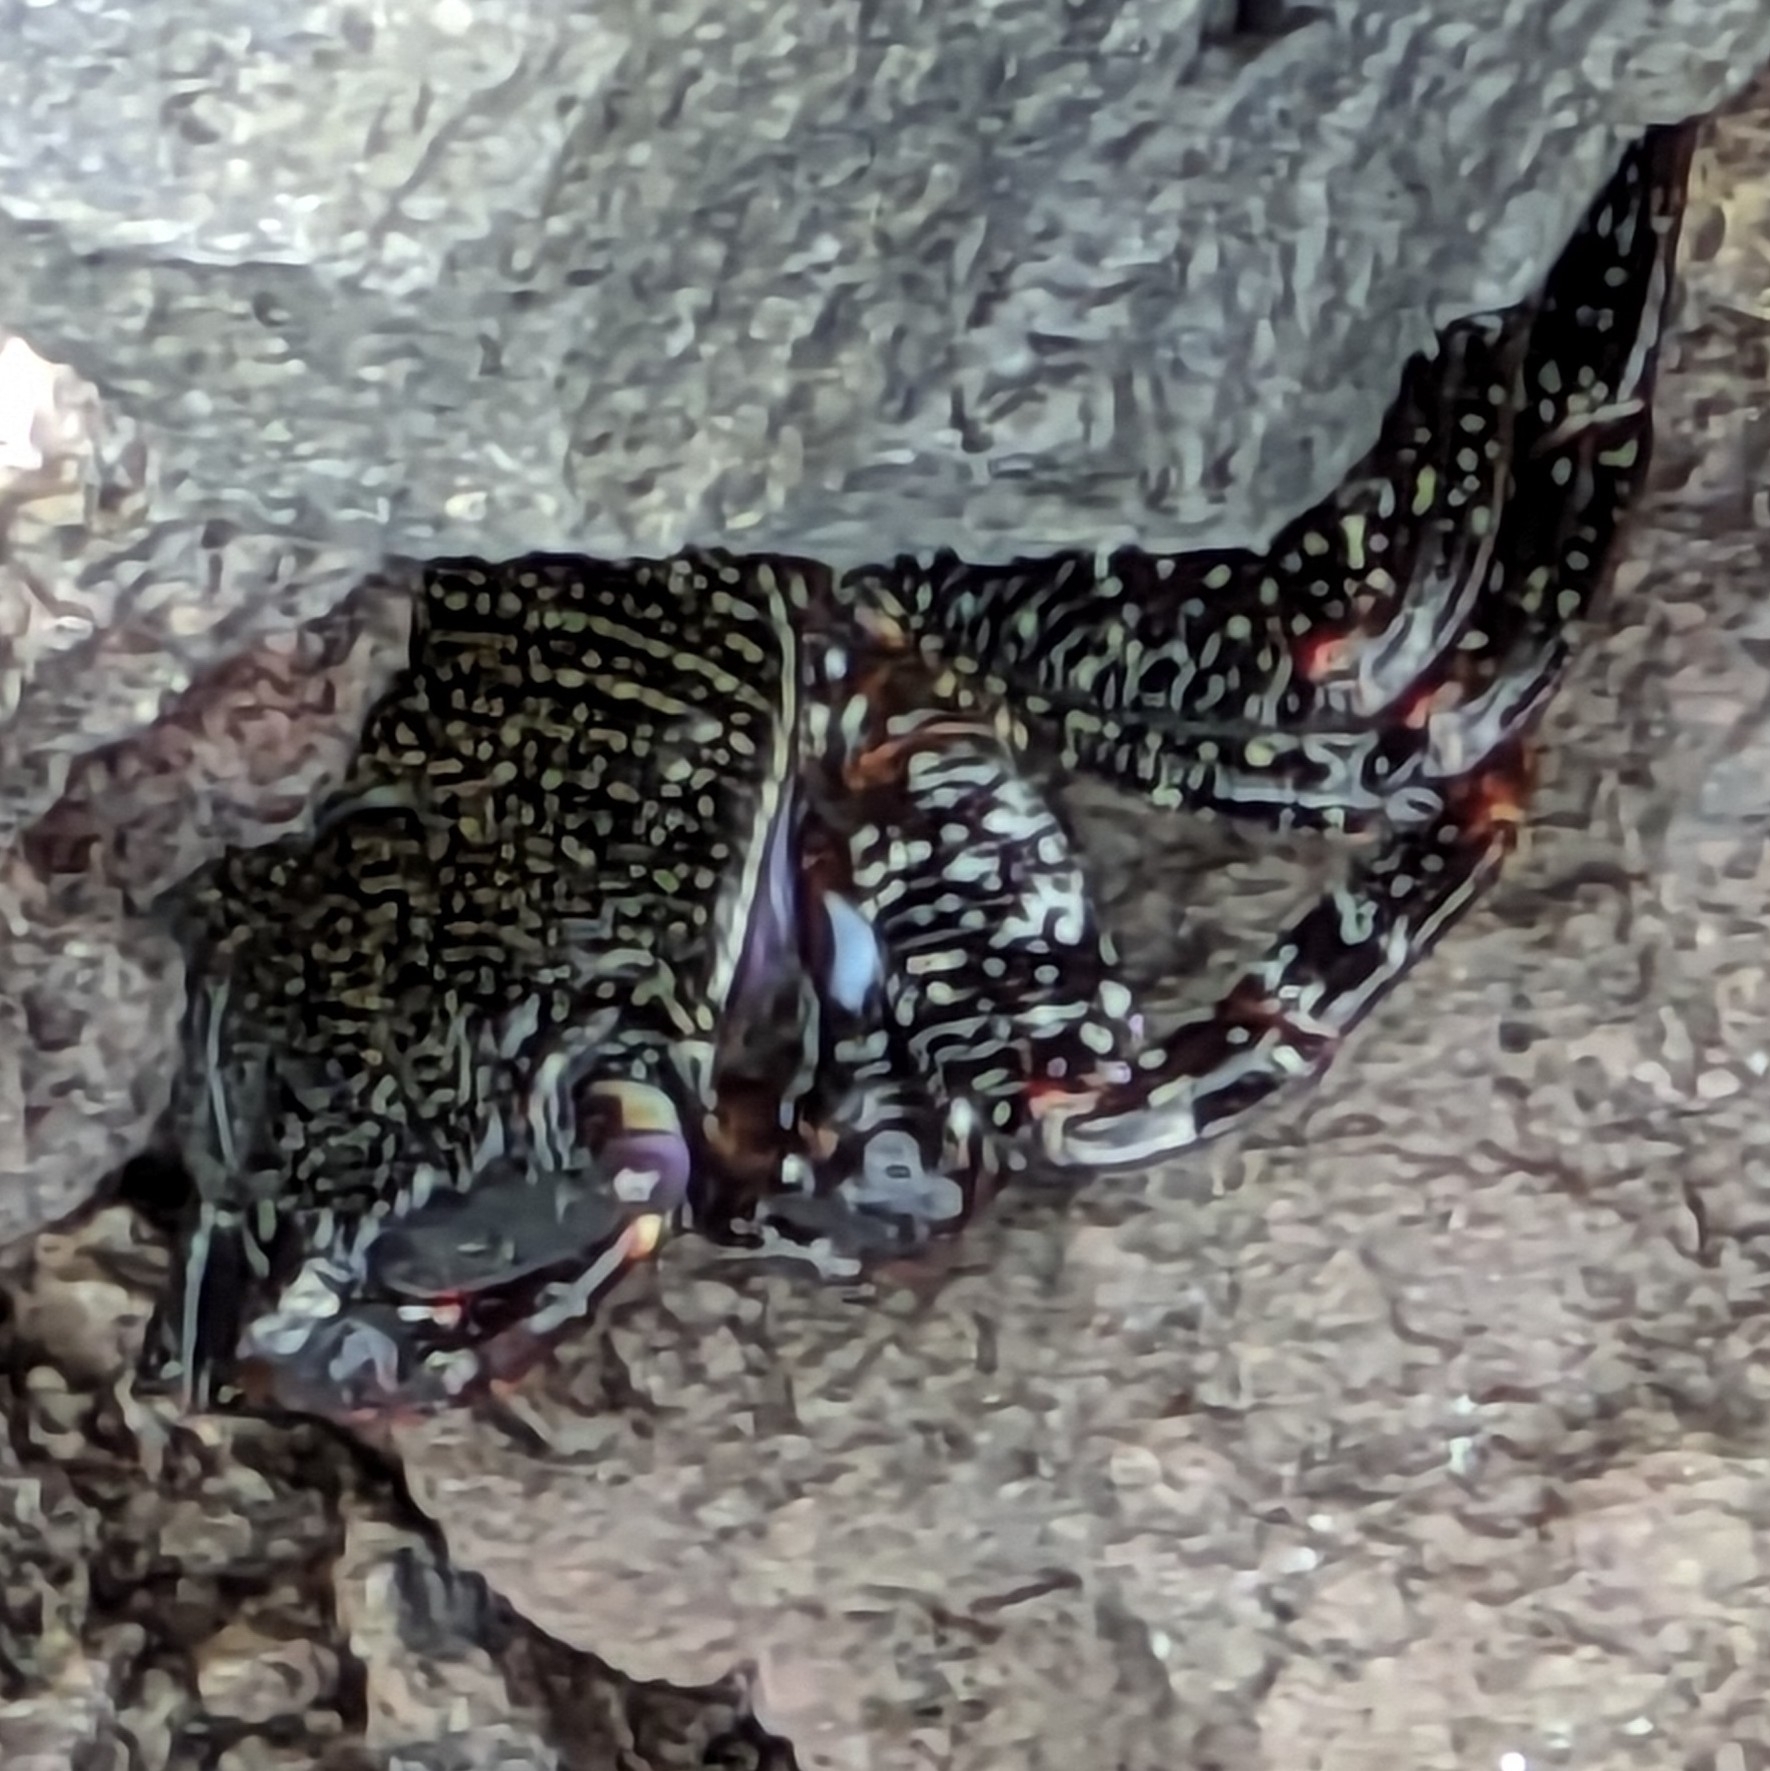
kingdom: Animalia
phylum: Arthropoda
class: Malacostraca
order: Decapoda
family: Grapsidae
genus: Grapsus
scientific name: Grapsus adscensionis
